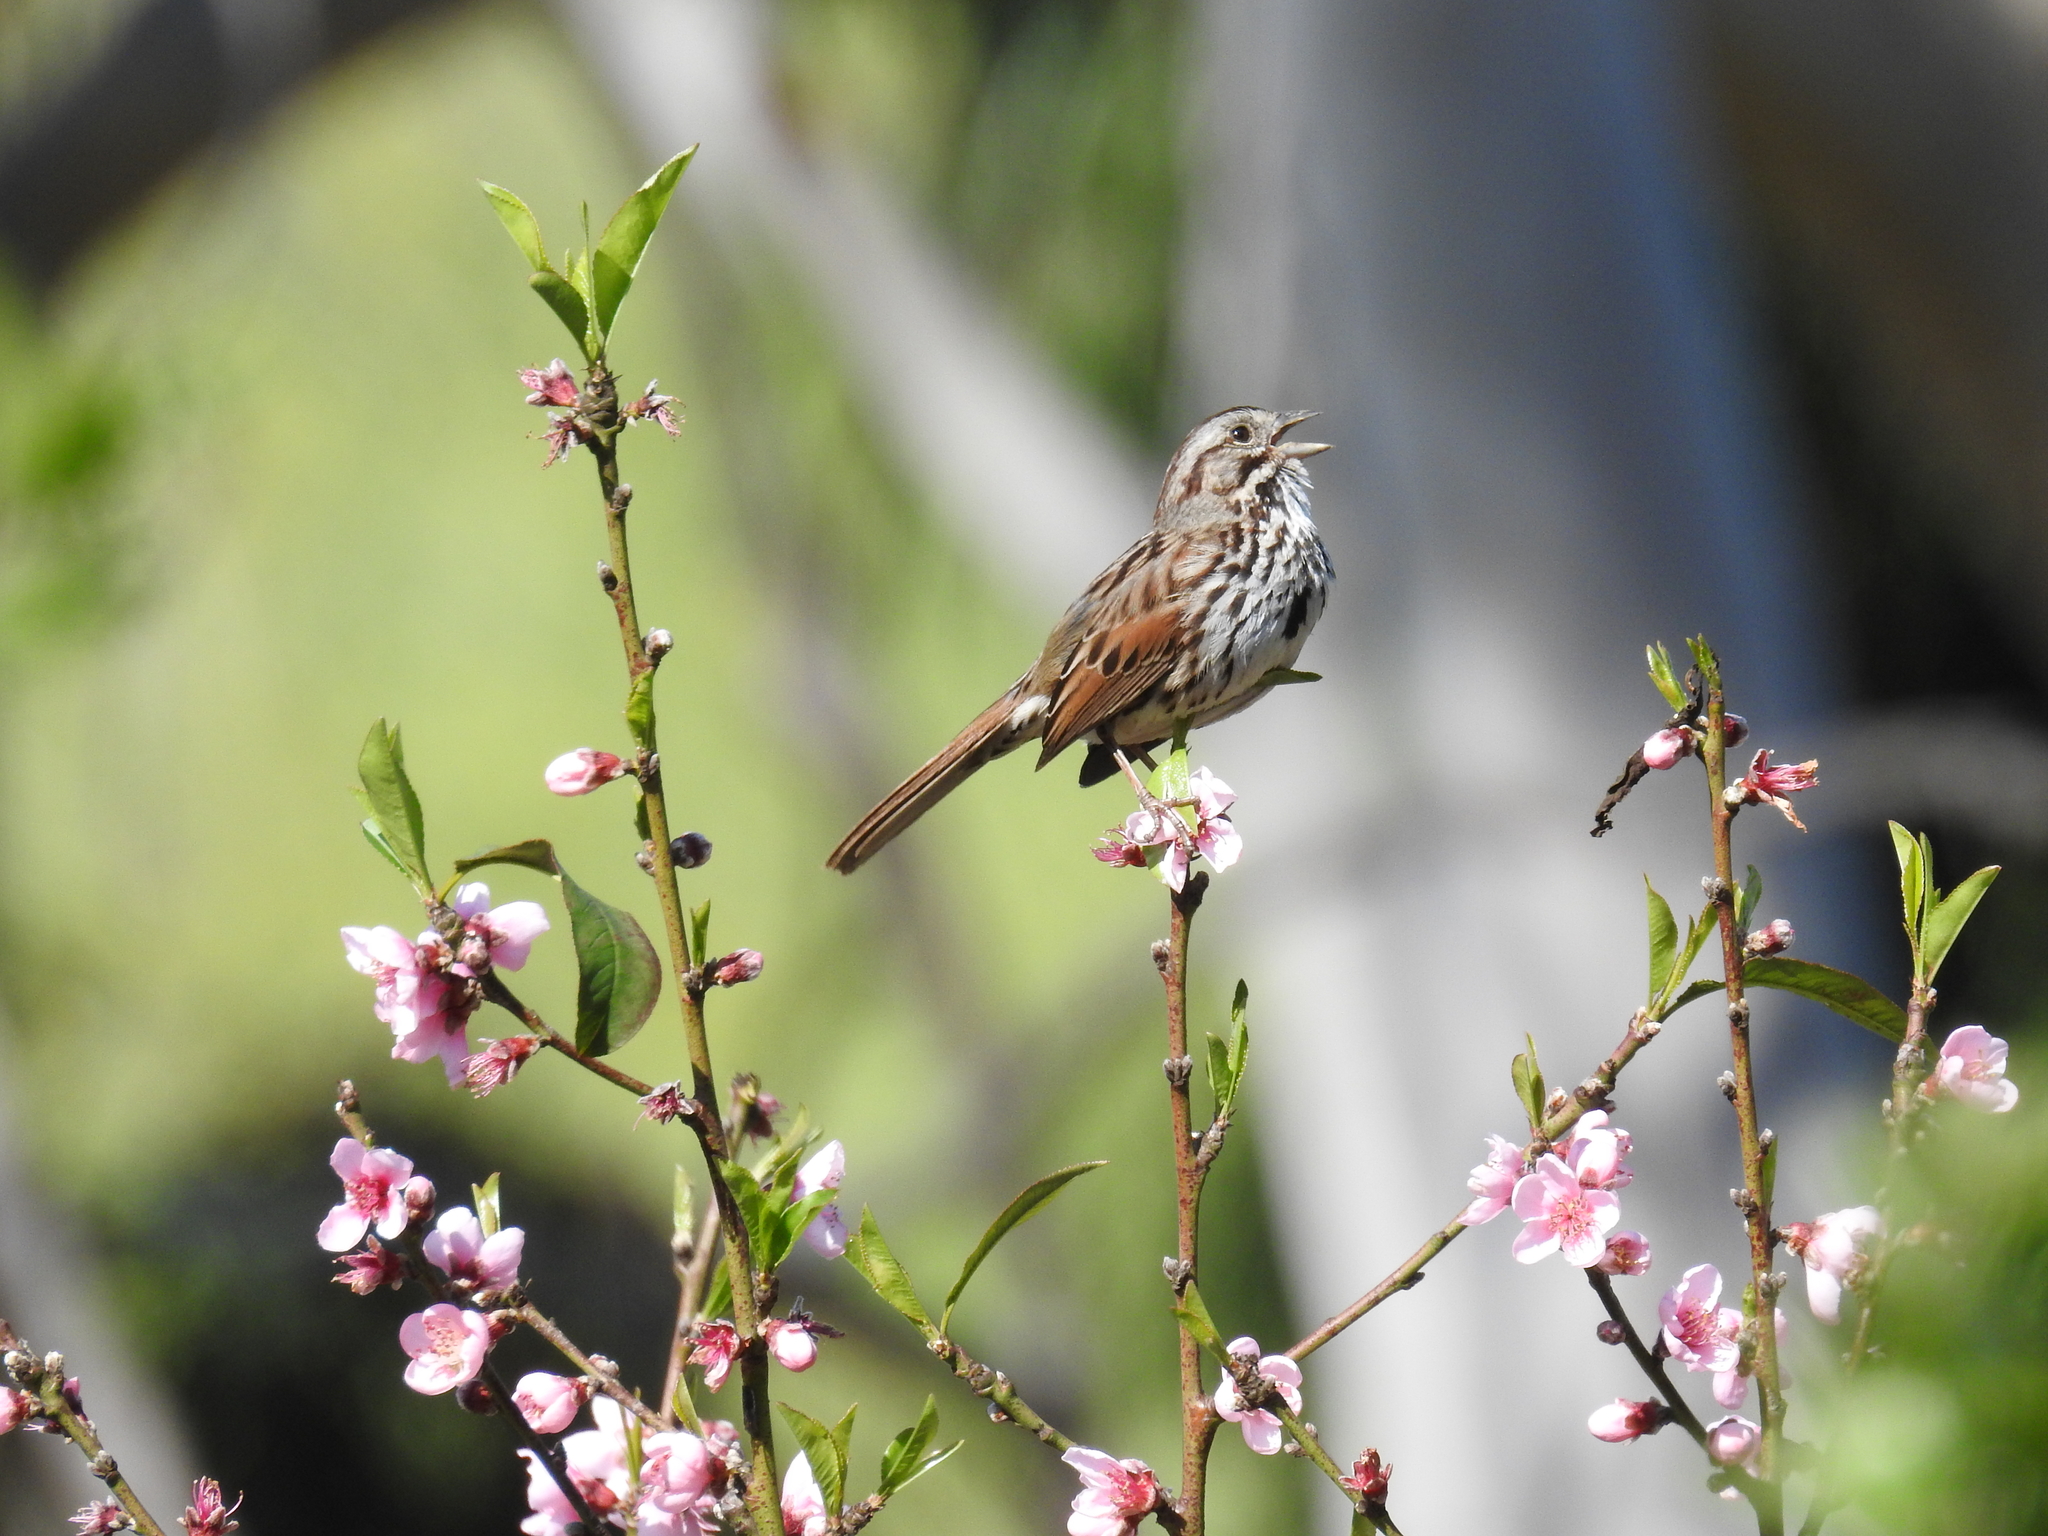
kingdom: Animalia
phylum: Chordata
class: Aves
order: Passeriformes
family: Passerellidae
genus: Melospiza
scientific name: Melospiza melodia
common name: Song sparrow
